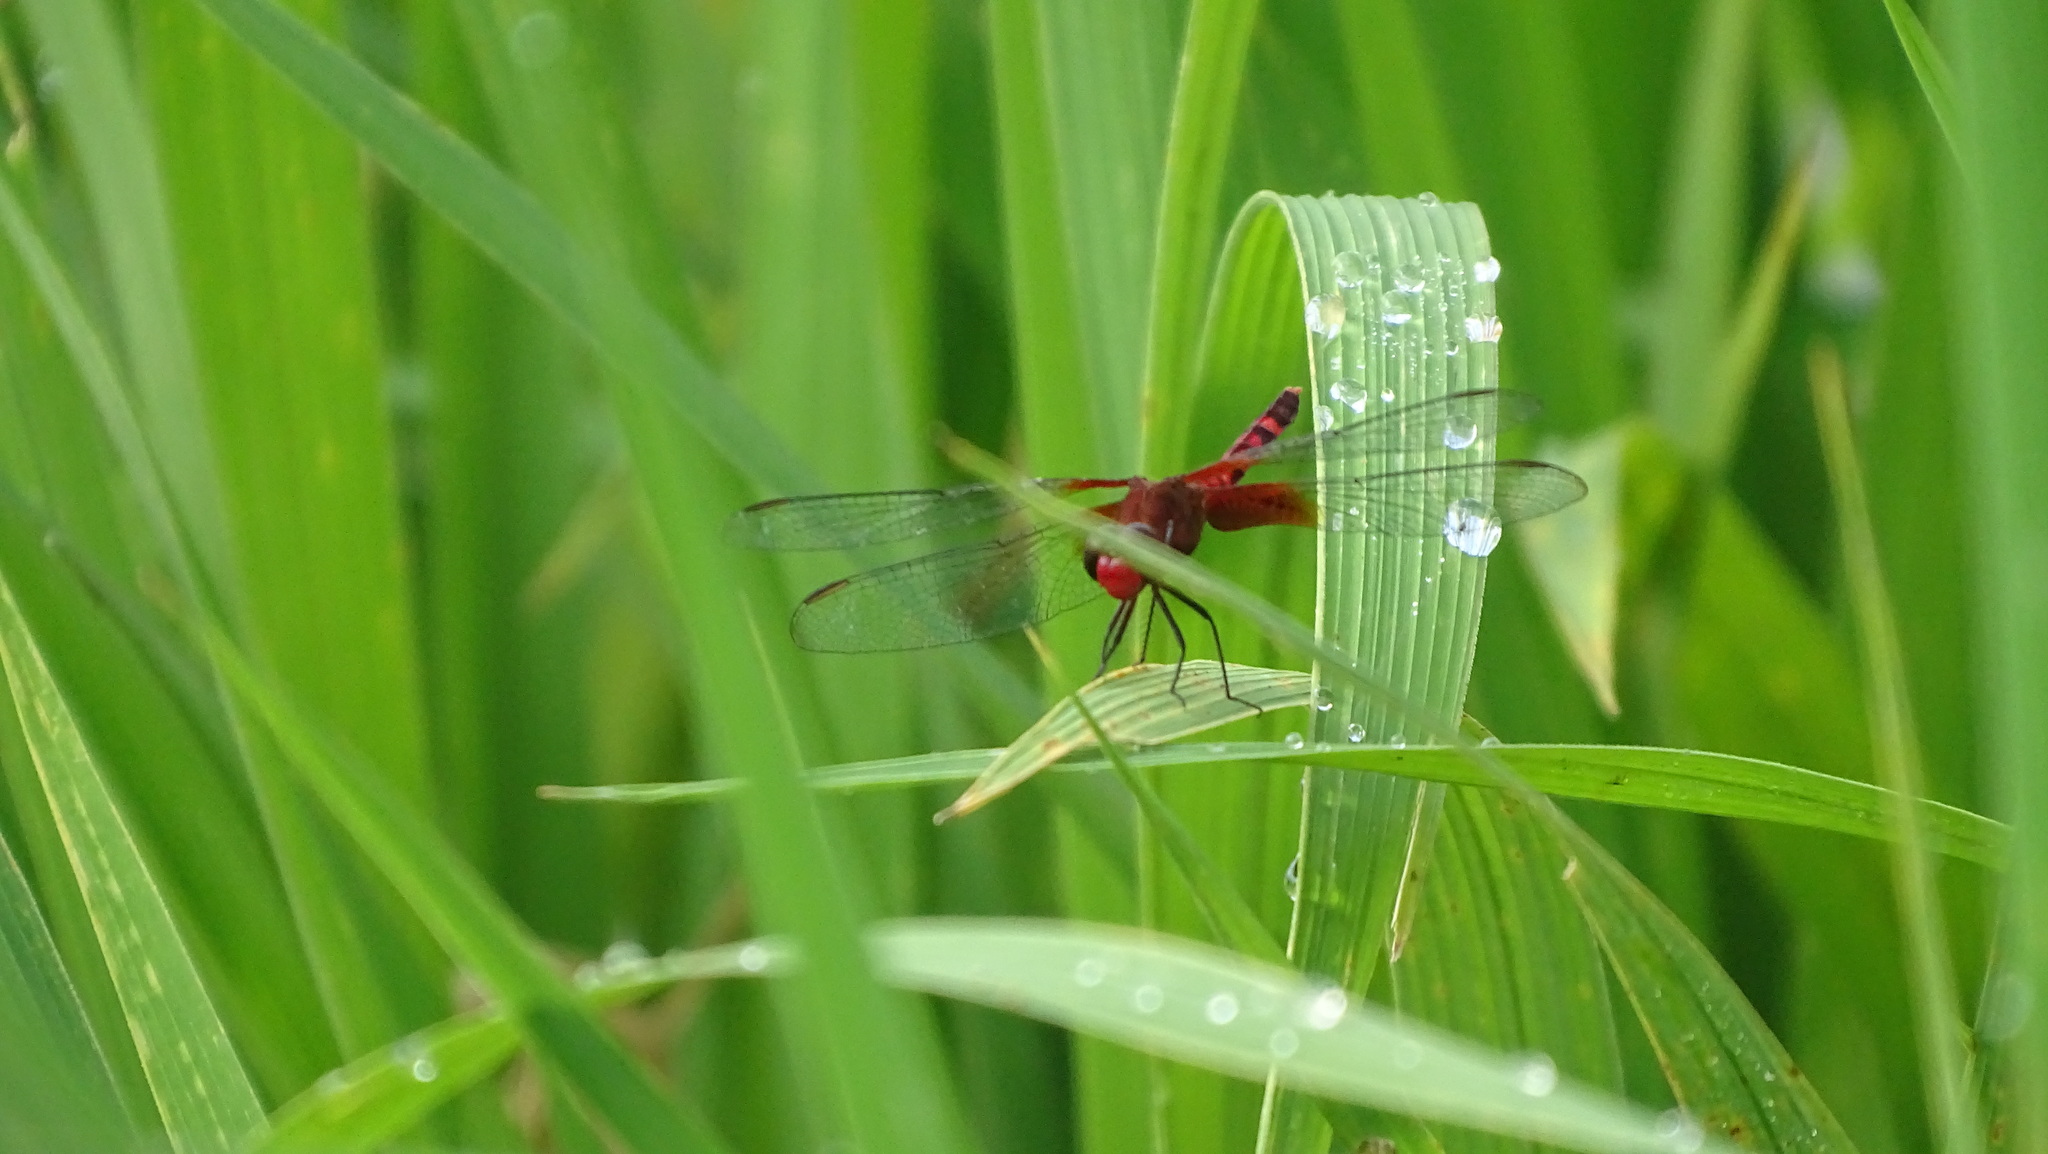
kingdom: Animalia
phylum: Arthropoda
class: Insecta
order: Odonata
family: Libellulidae
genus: Erythrodiplax
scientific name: Erythrodiplax fervida
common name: Red-mantled dragonlet
